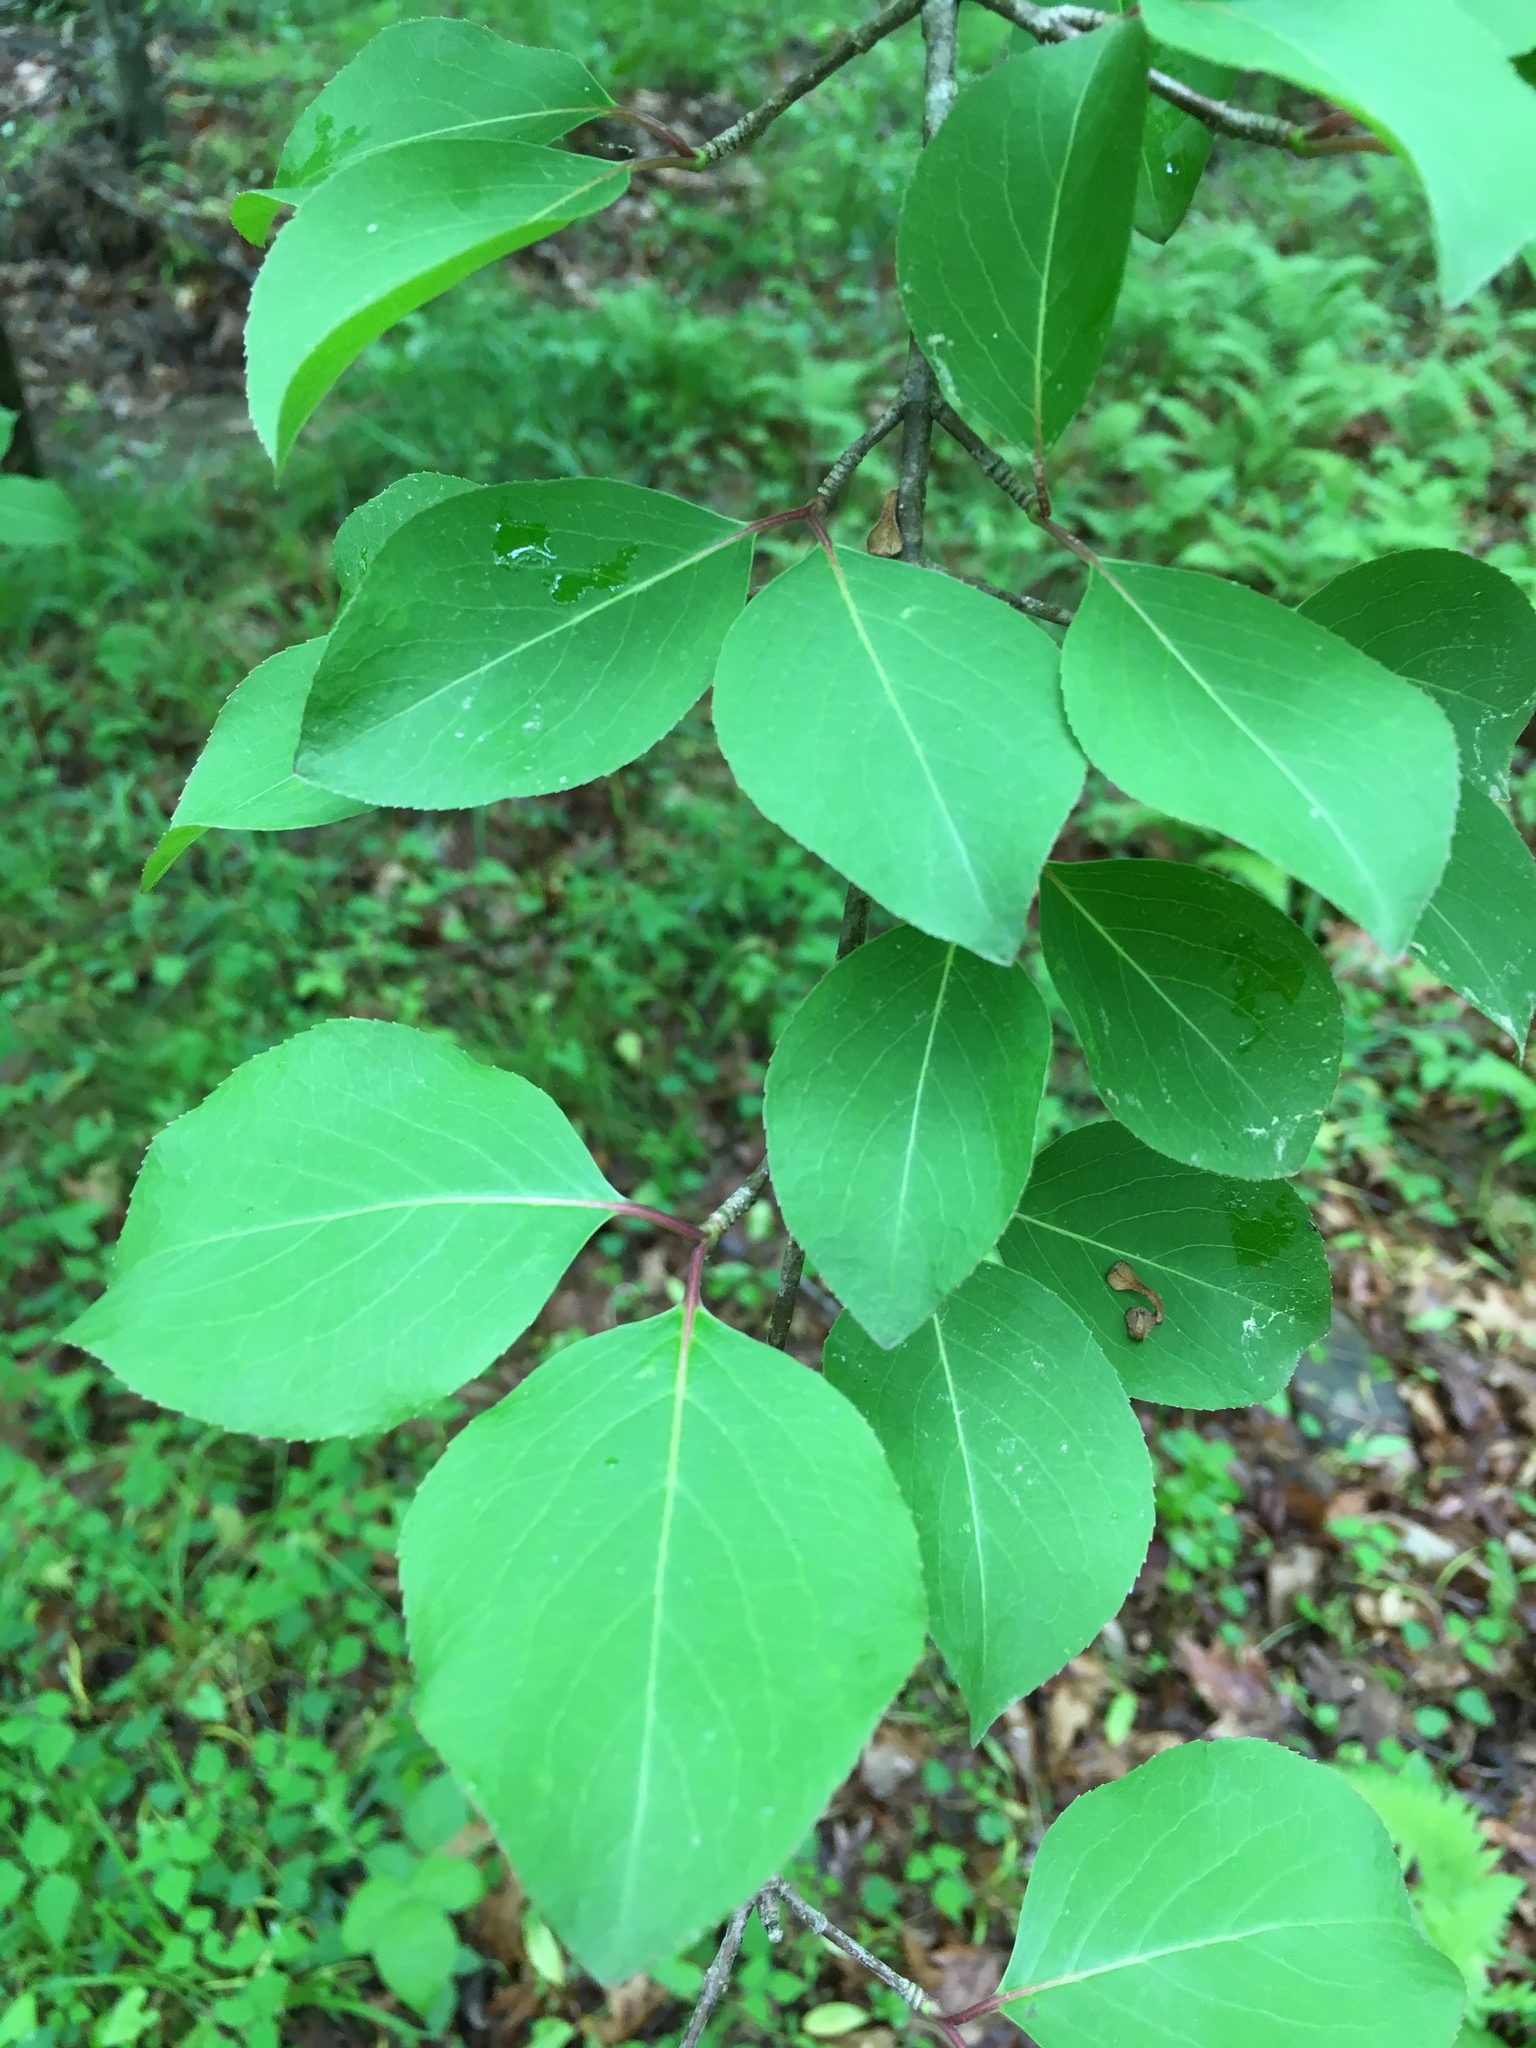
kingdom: Plantae
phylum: Tracheophyta
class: Magnoliopsida
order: Dipsacales
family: Viburnaceae
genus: Viburnum
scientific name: Viburnum prunifolium
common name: Black haw
